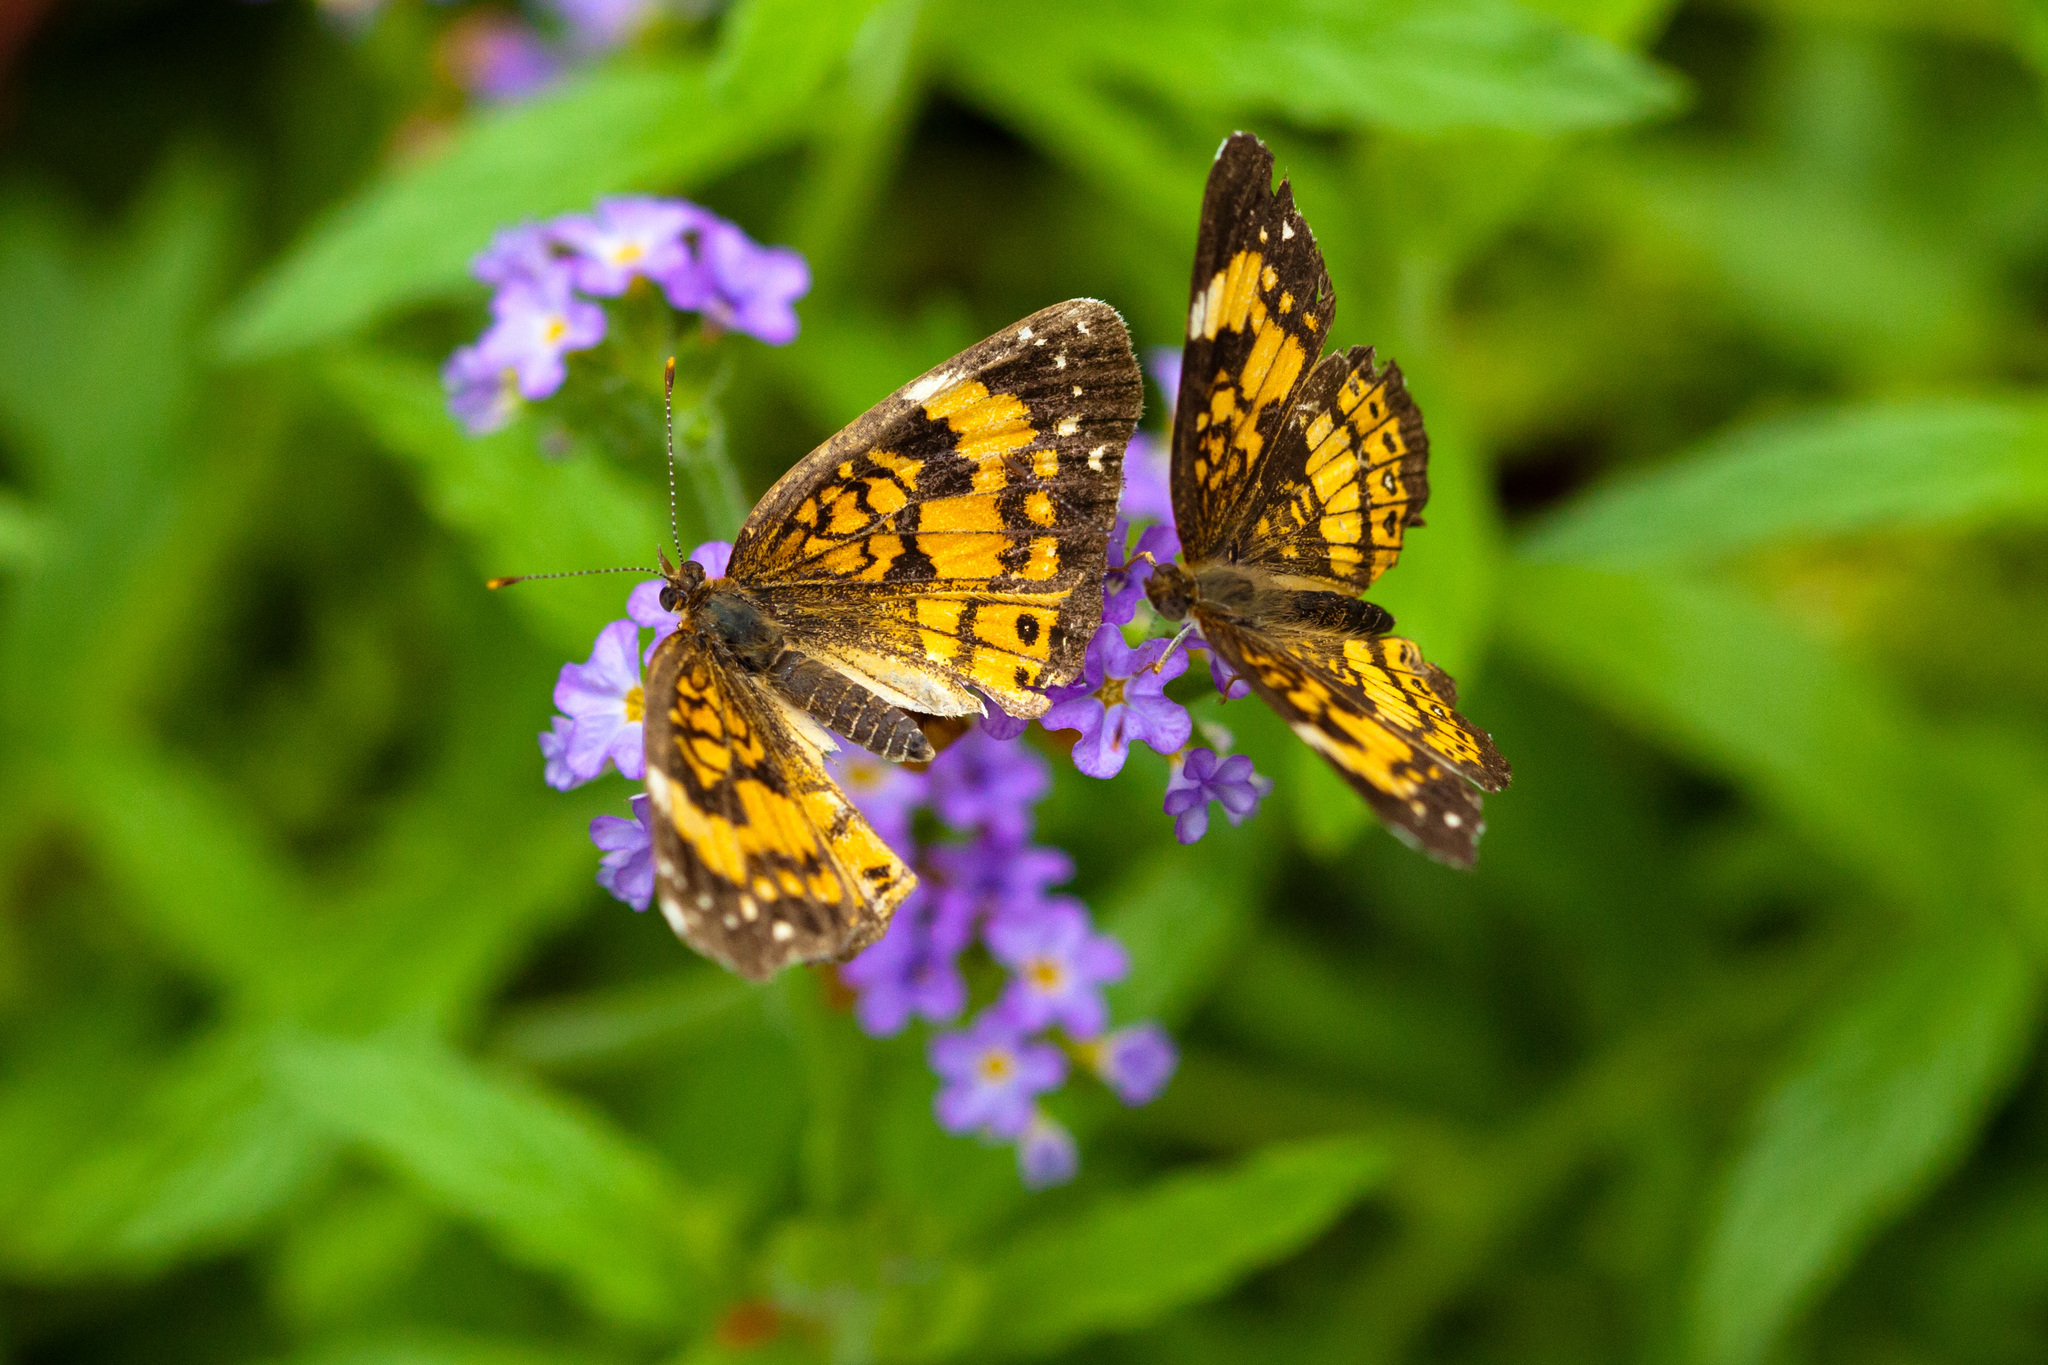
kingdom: Animalia
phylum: Arthropoda
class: Insecta
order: Lepidoptera
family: Nymphalidae
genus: Chlosyne
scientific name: Chlosyne nycteis
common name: Silvery checkerspot
